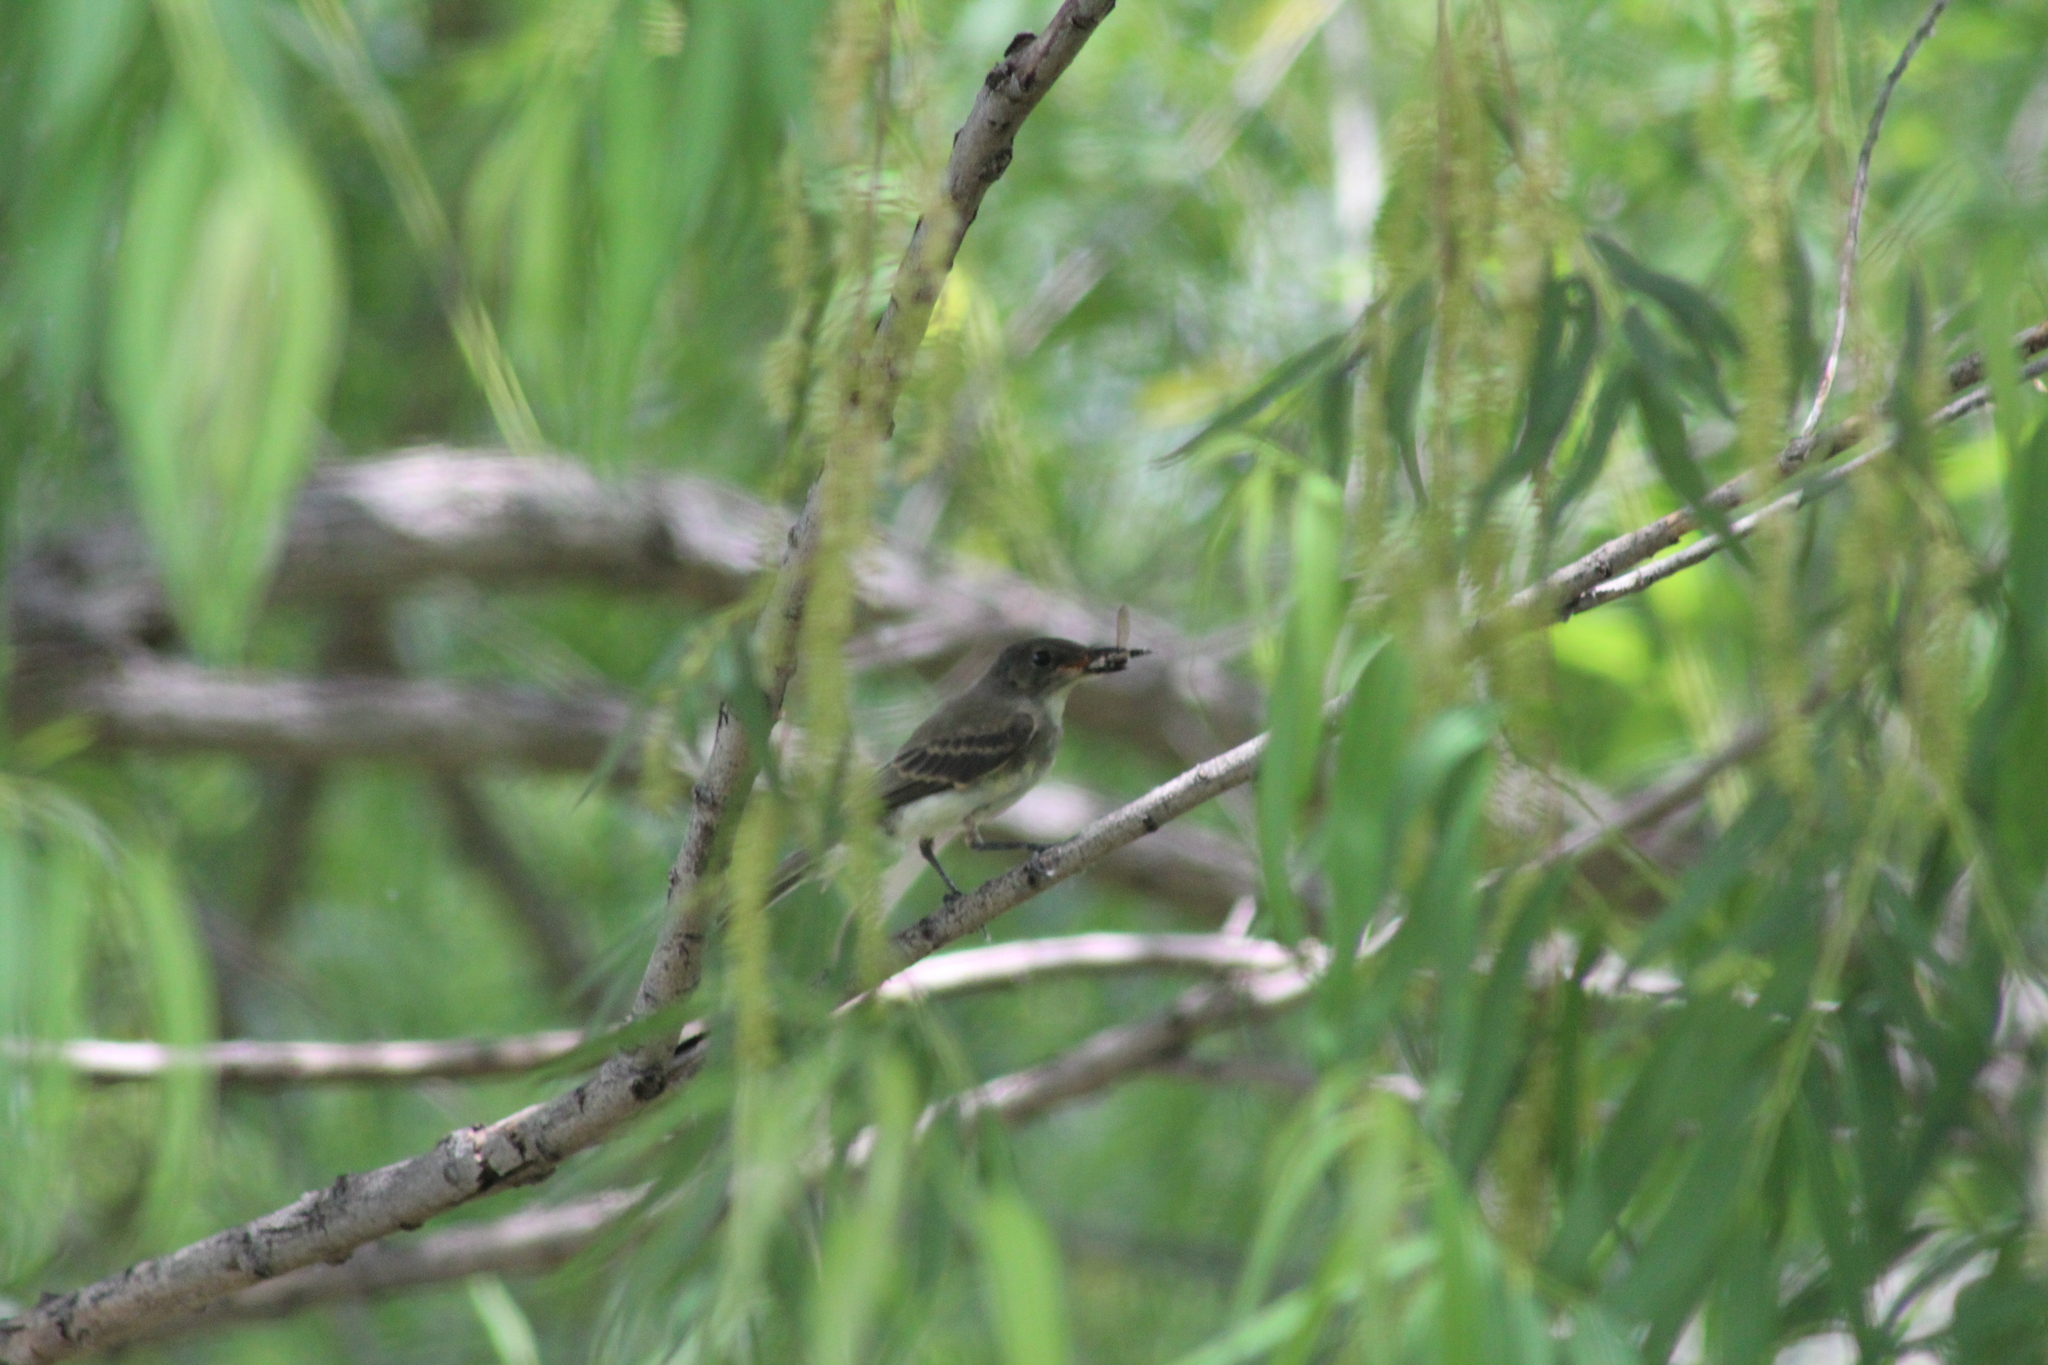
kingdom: Animalia
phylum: Chordata
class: Aves
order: Passeriformes
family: Tyrannidae
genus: Contopus
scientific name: Contopus virens
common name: Eastern wood-pewee
